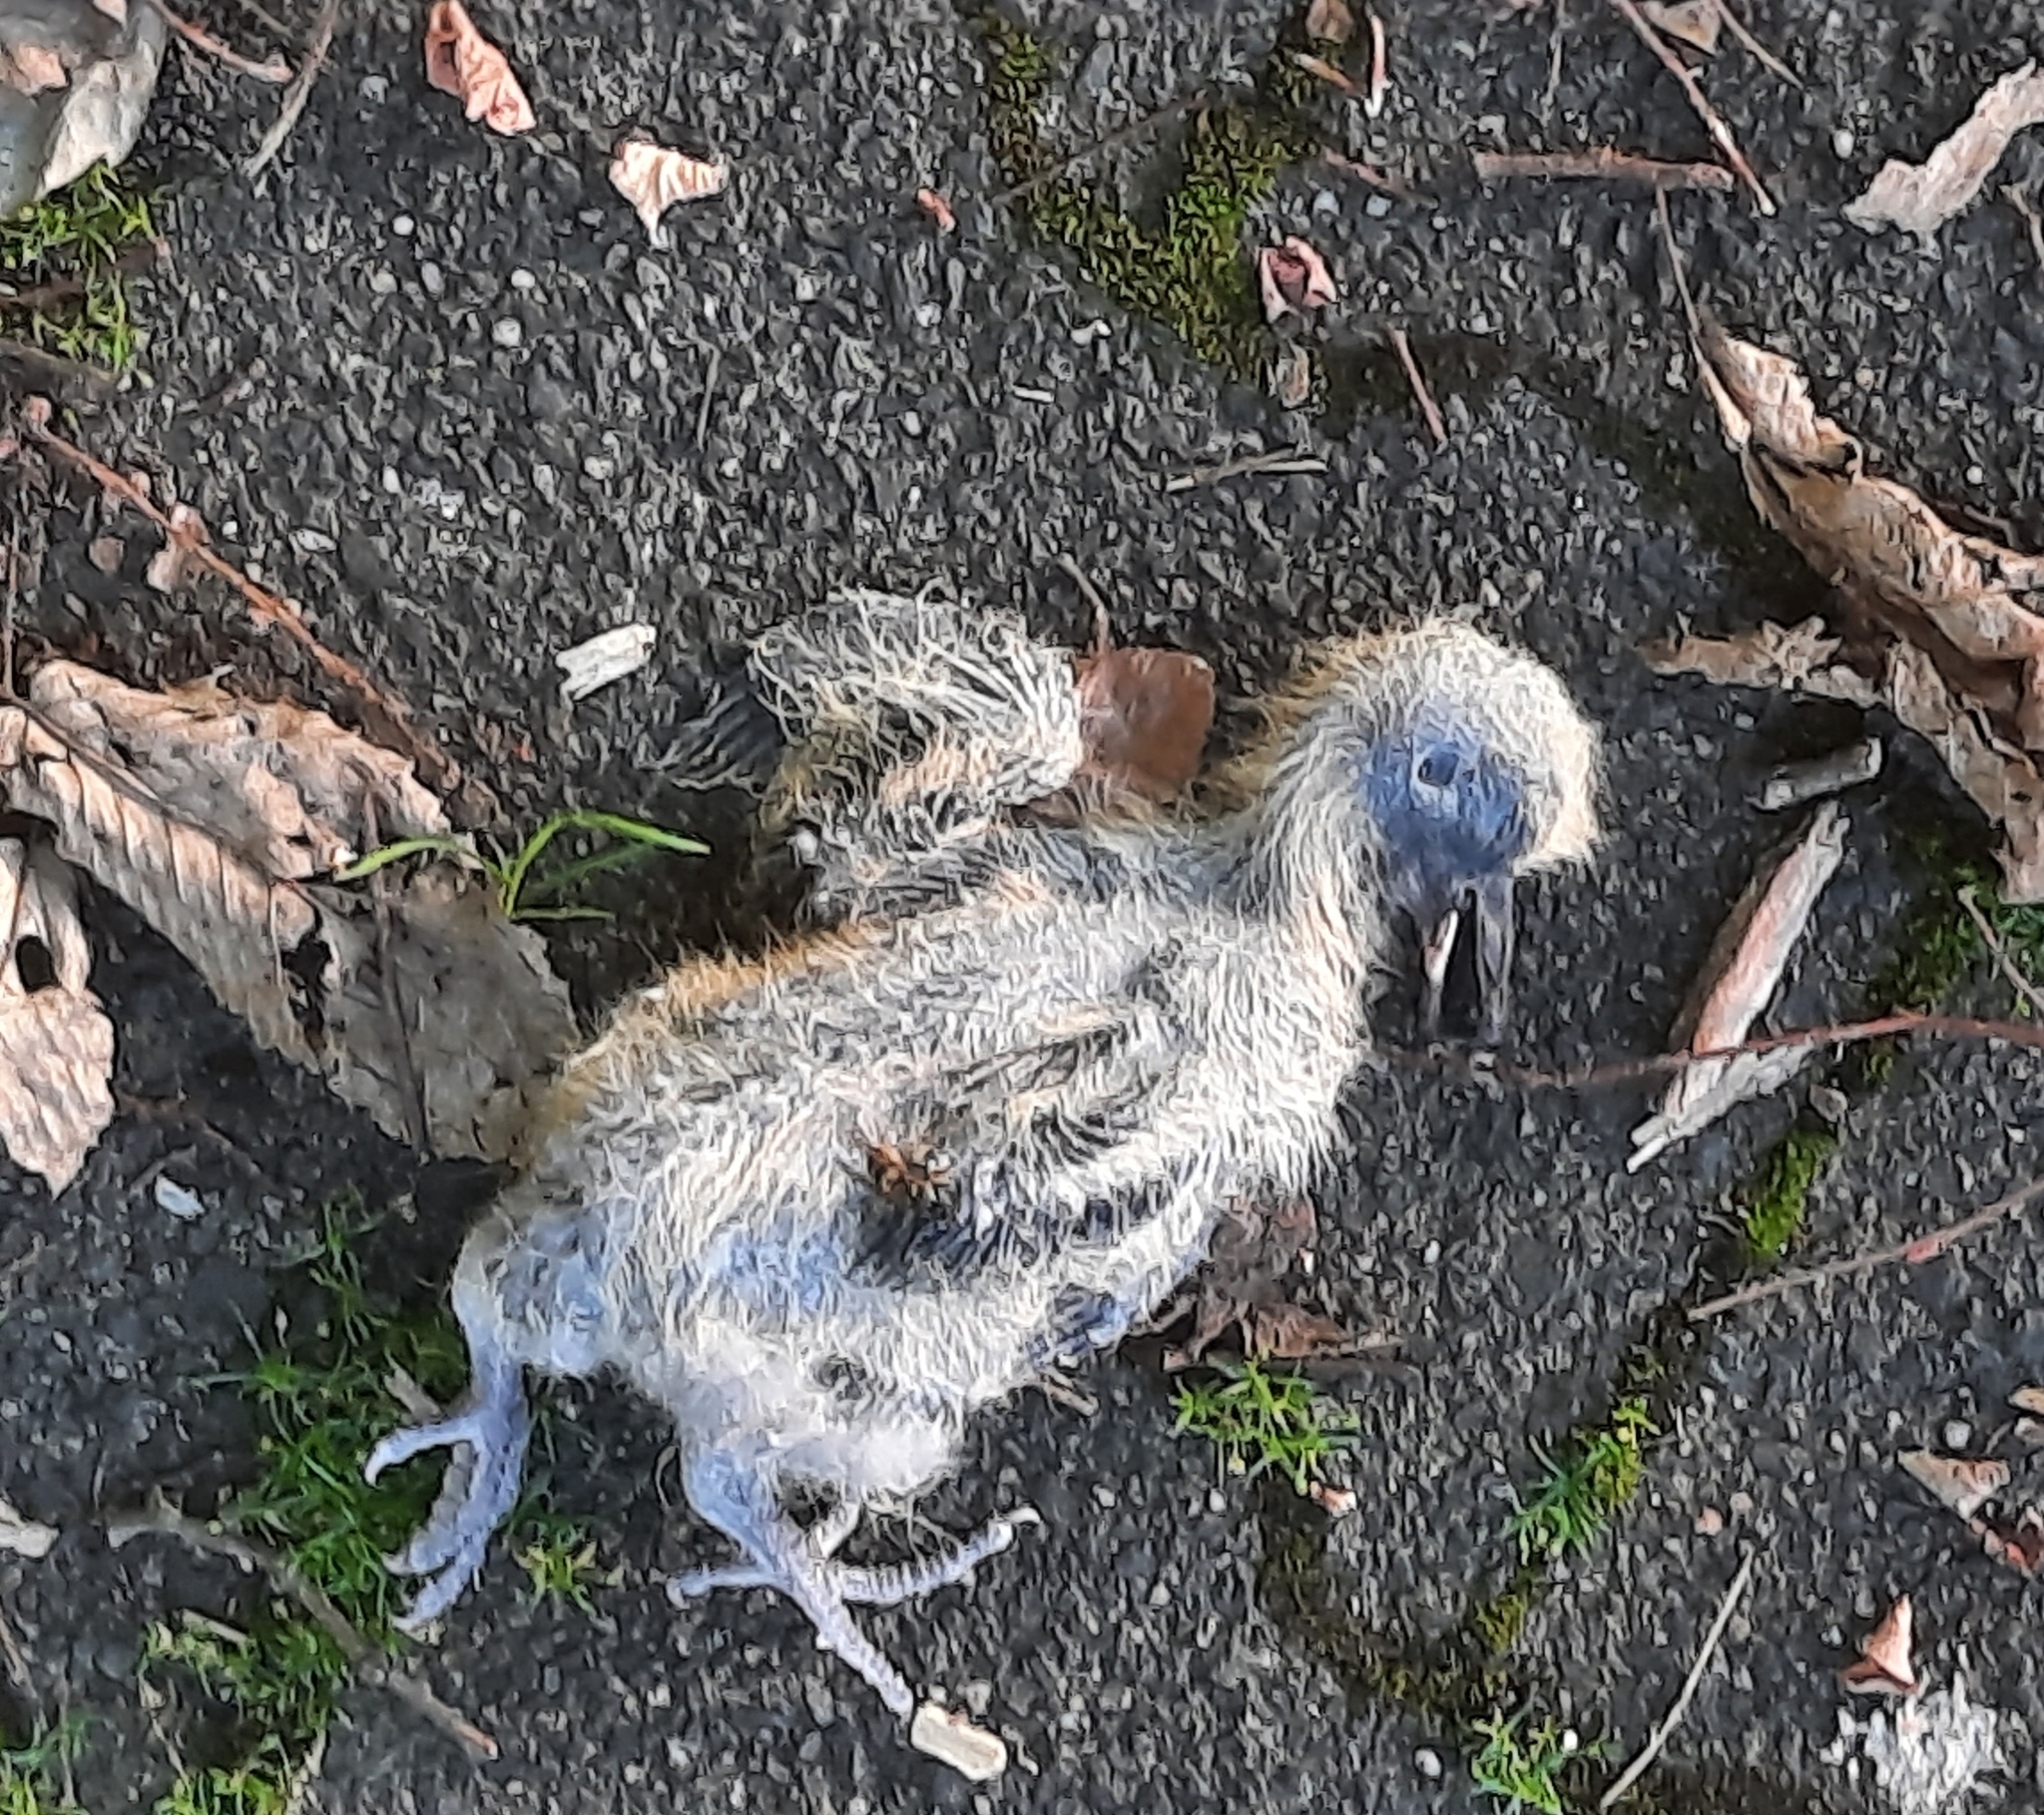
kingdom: Animalia
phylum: Chordata
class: Aves
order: Columbiformes
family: Columbidae
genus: Columba
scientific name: Columba palumbus
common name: Common wood pigeon
